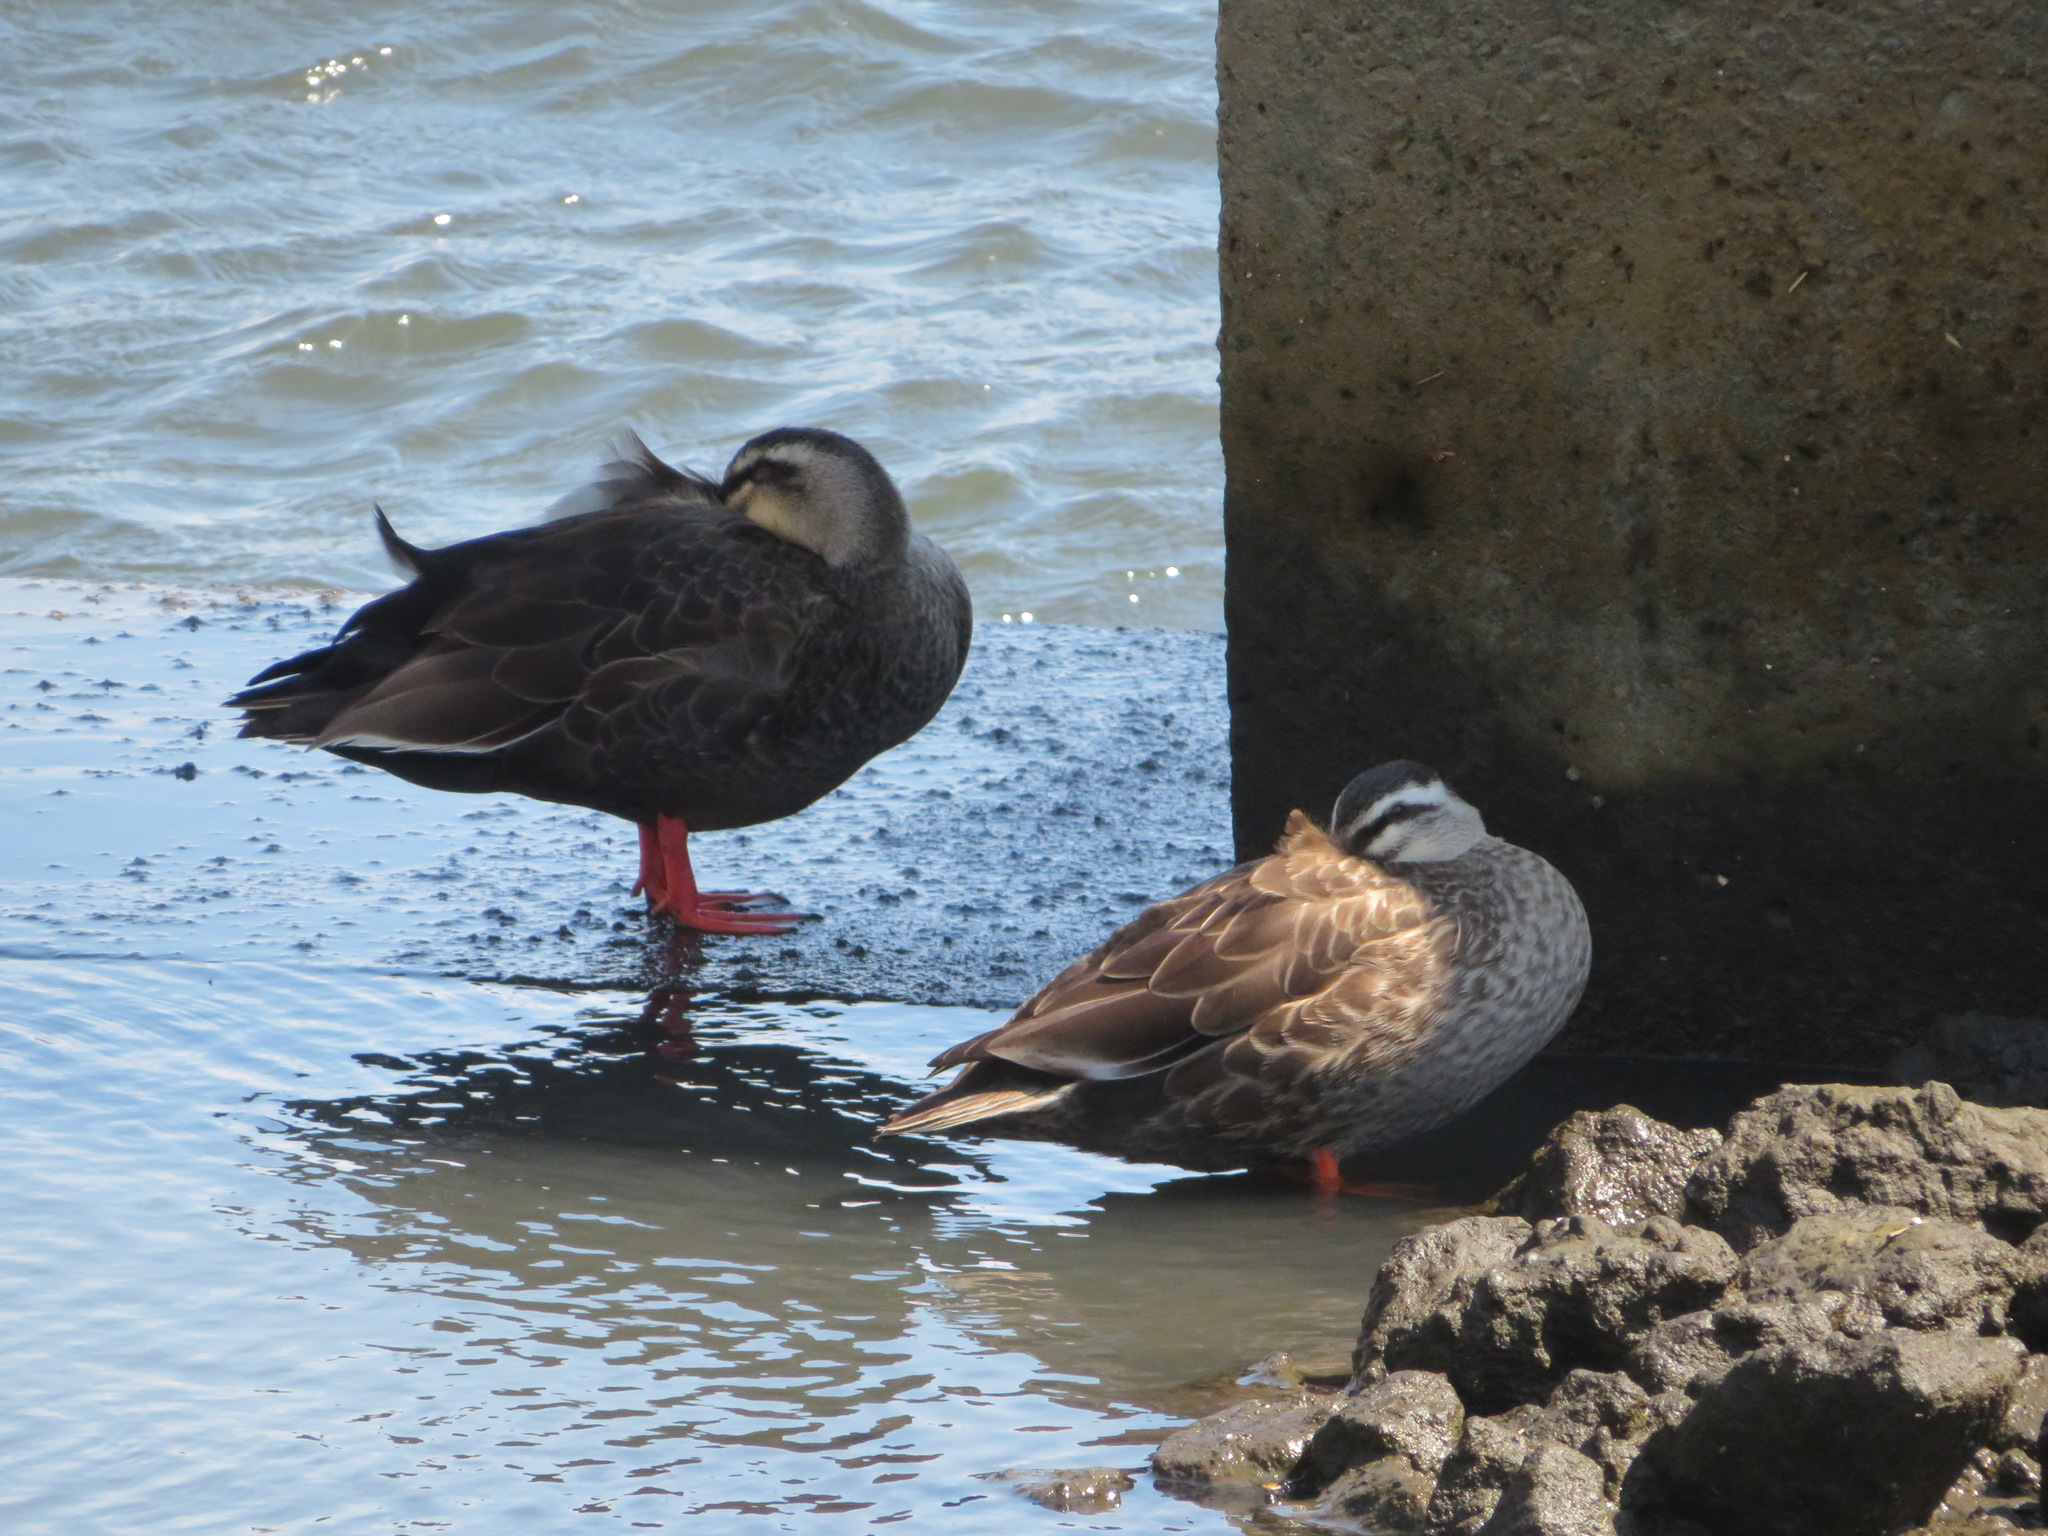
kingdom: Animalia
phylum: Chordata
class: Aves
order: Anseriformes
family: Anatidae
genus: Anas
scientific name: Anas zonorhyncha
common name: Eastern spot-billed duck
